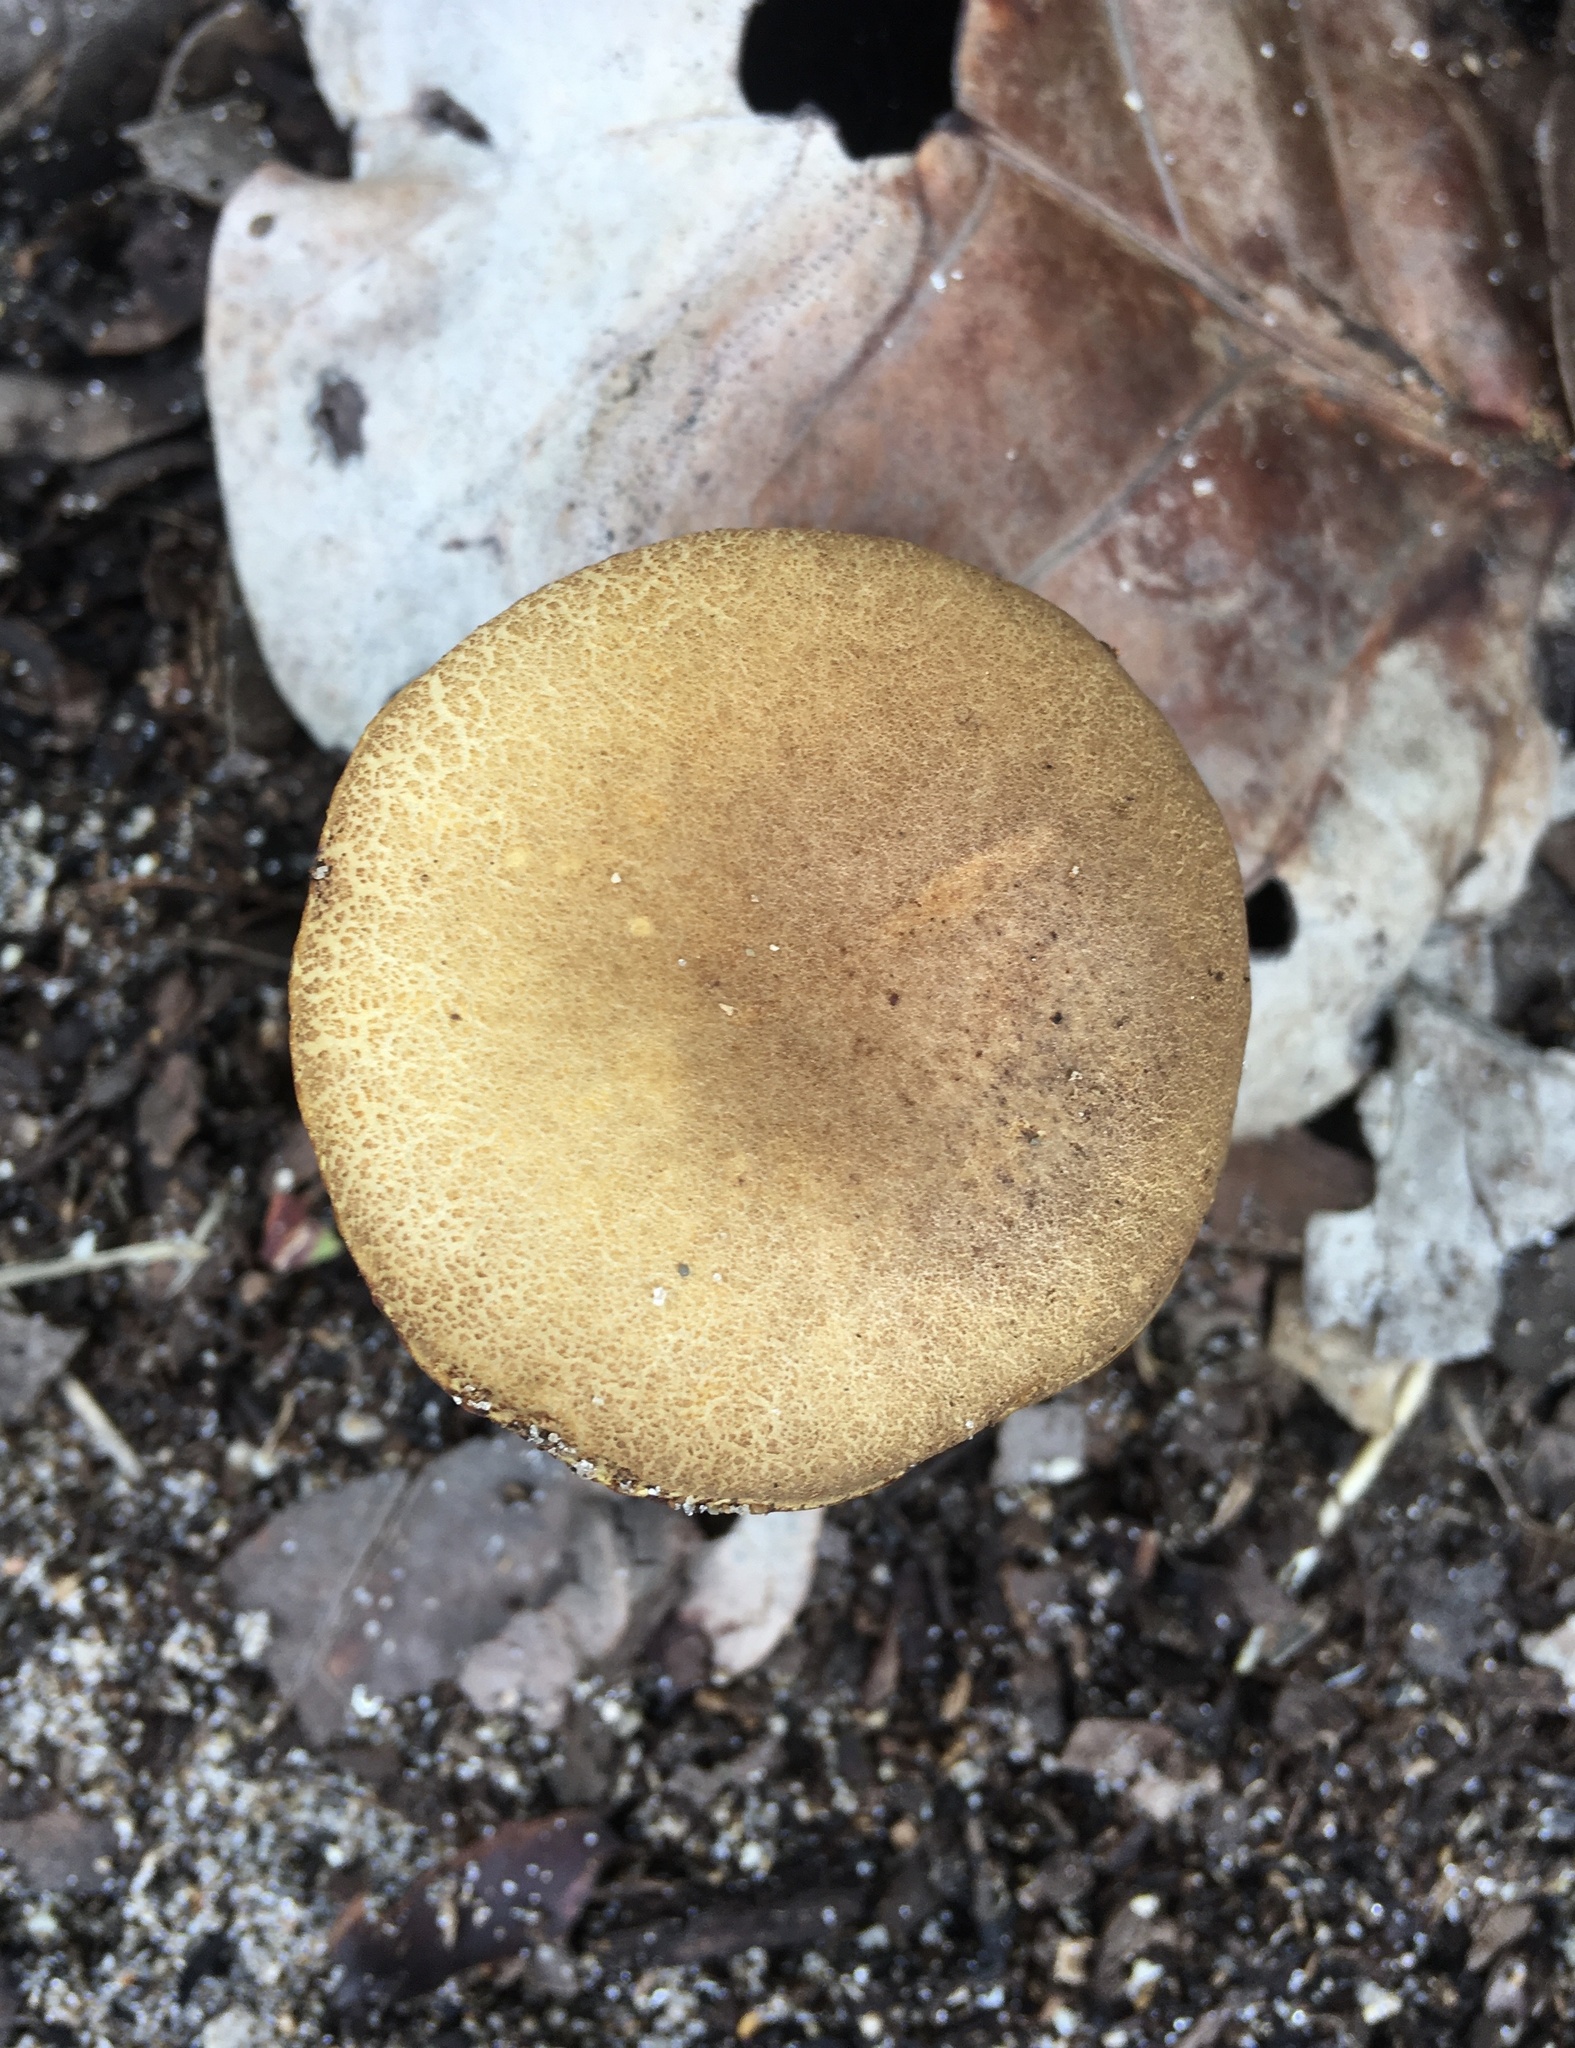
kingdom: Fungi
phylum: Basidiomycota
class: Agaricomycetes
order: Boletales
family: Boletaceae
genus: Xerocomus
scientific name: Xerocomus coccolobae
